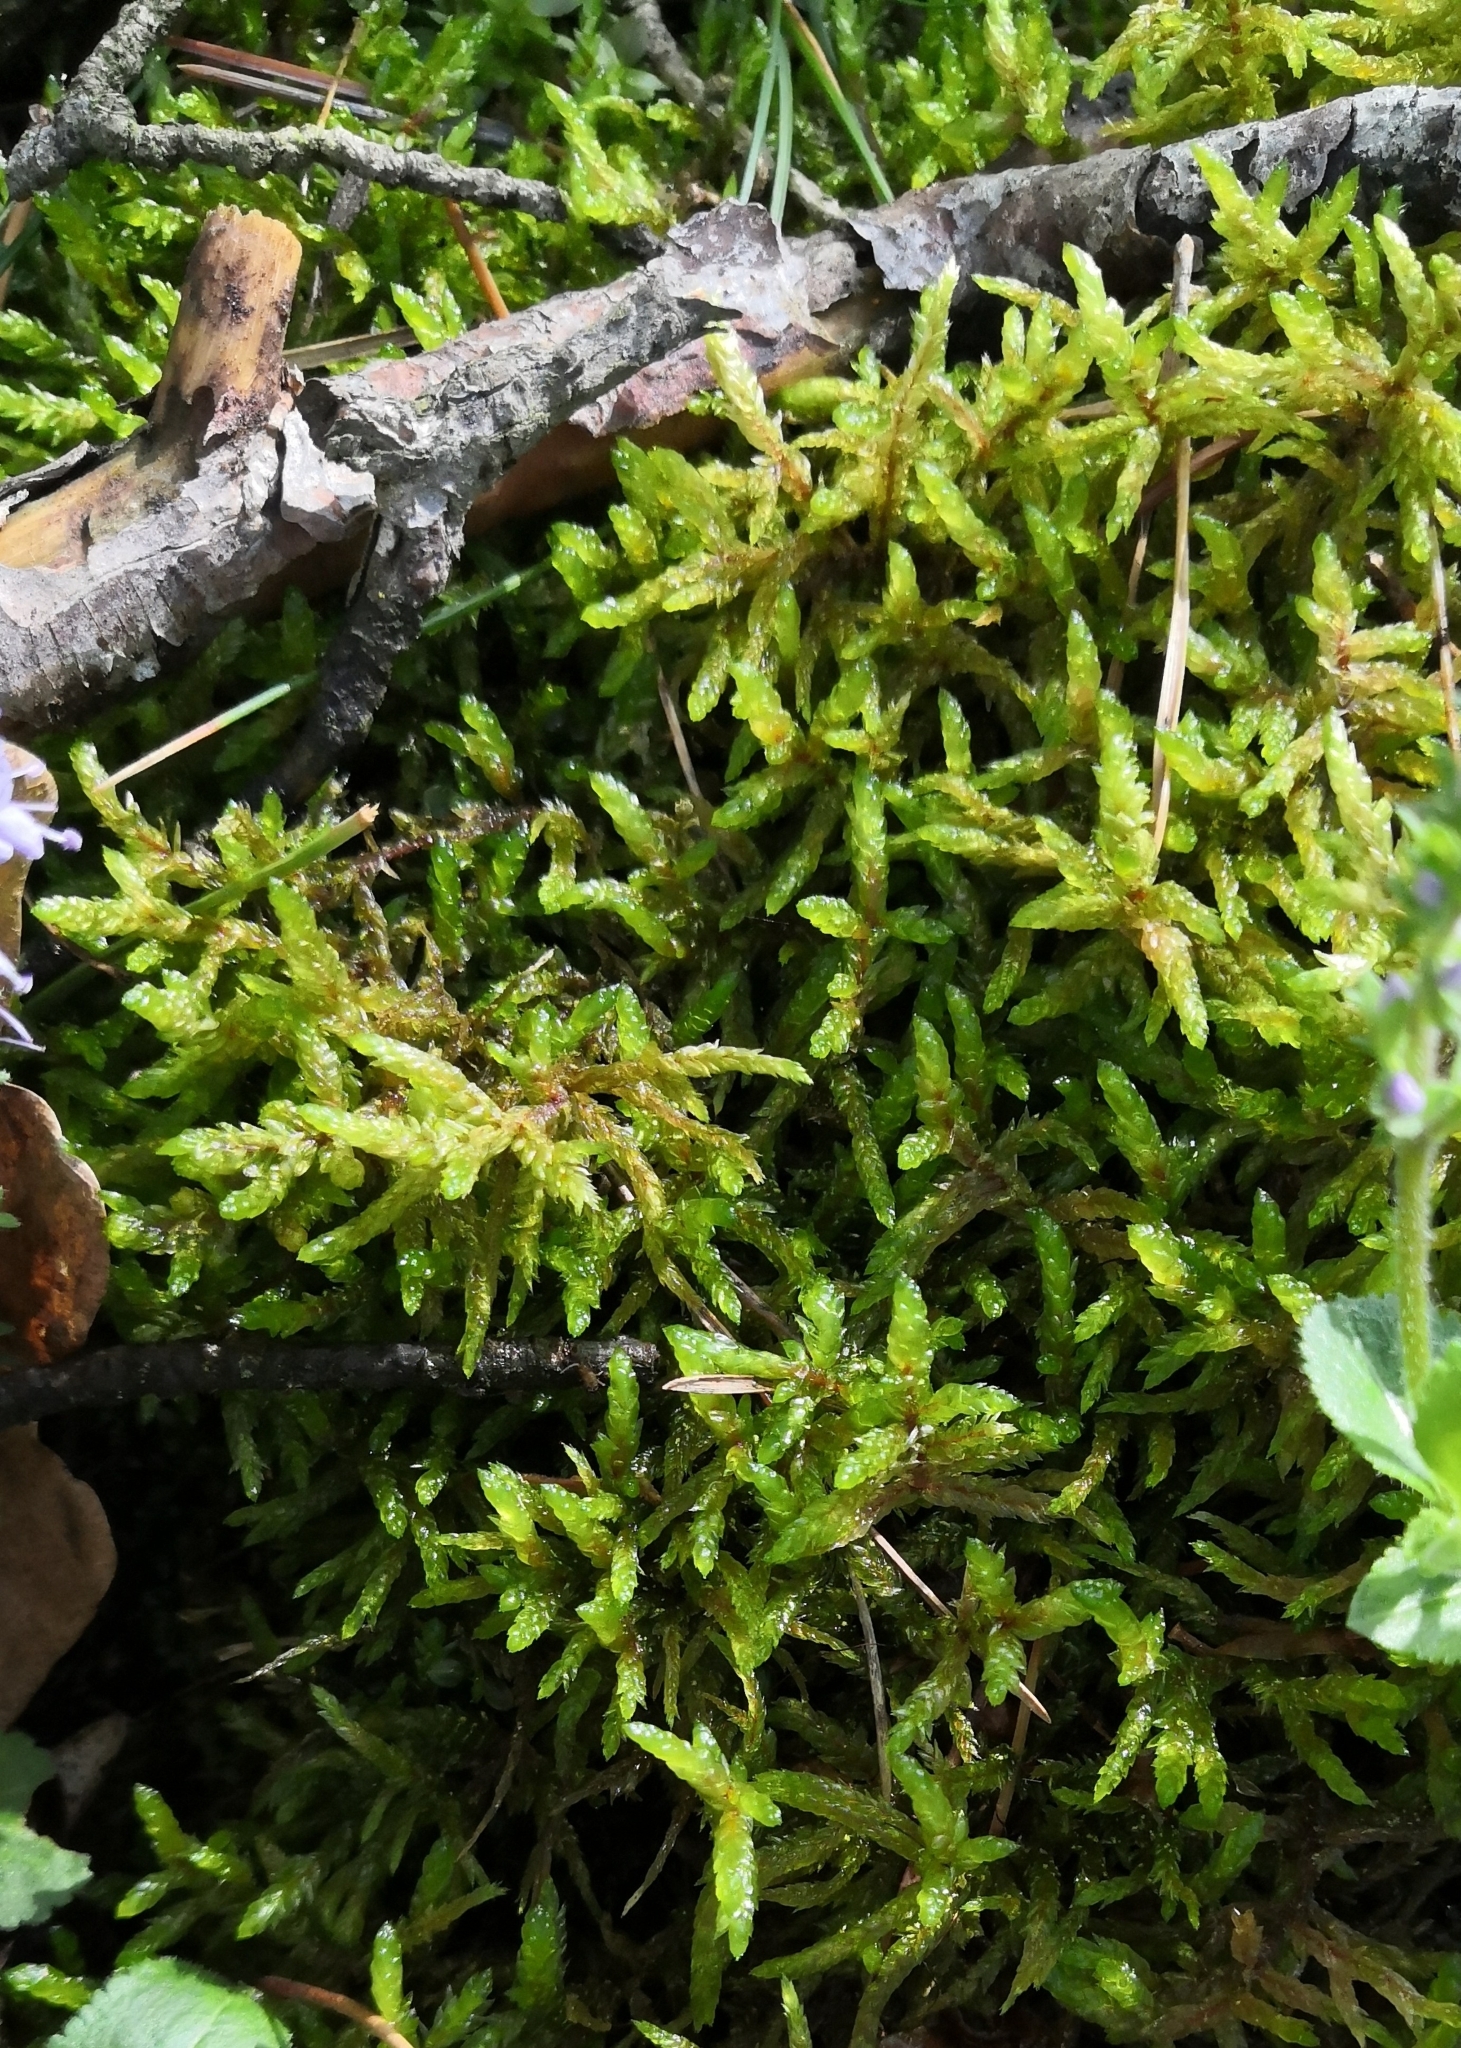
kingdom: Plantae
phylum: Bryophyta
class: Bryopsida
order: Hypnales
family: Hylocomiaceae
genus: Pleurozium
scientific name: Pleurozium schreberi
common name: Red-stemmed feather moss
